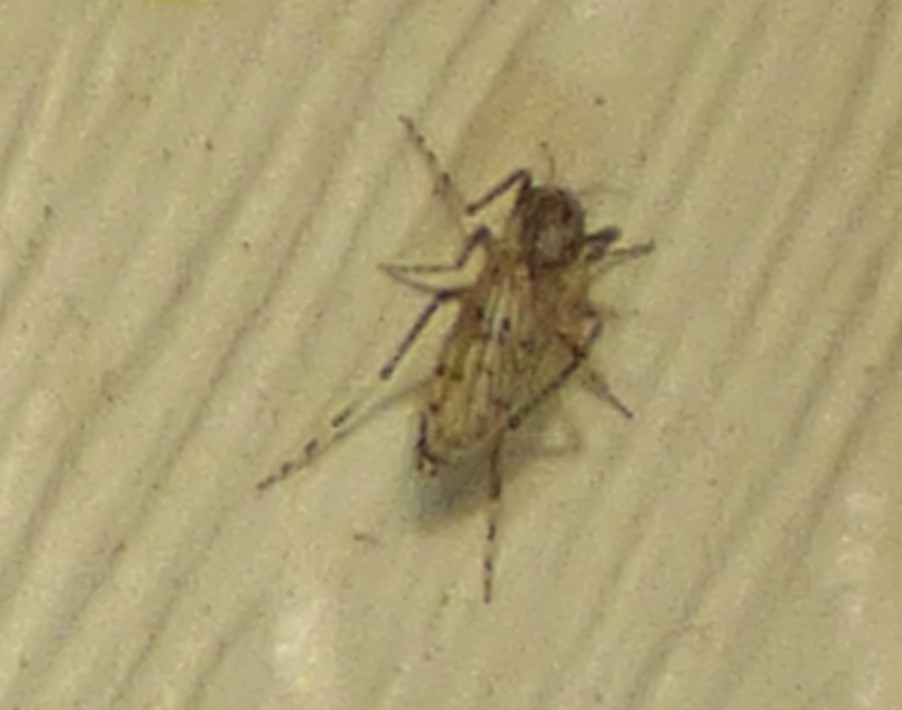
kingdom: Animalia
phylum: Arthropoda
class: Insecta
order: Diptera
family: Chaoboridae
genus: Chaoborus
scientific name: Chaoborus punctipennis
